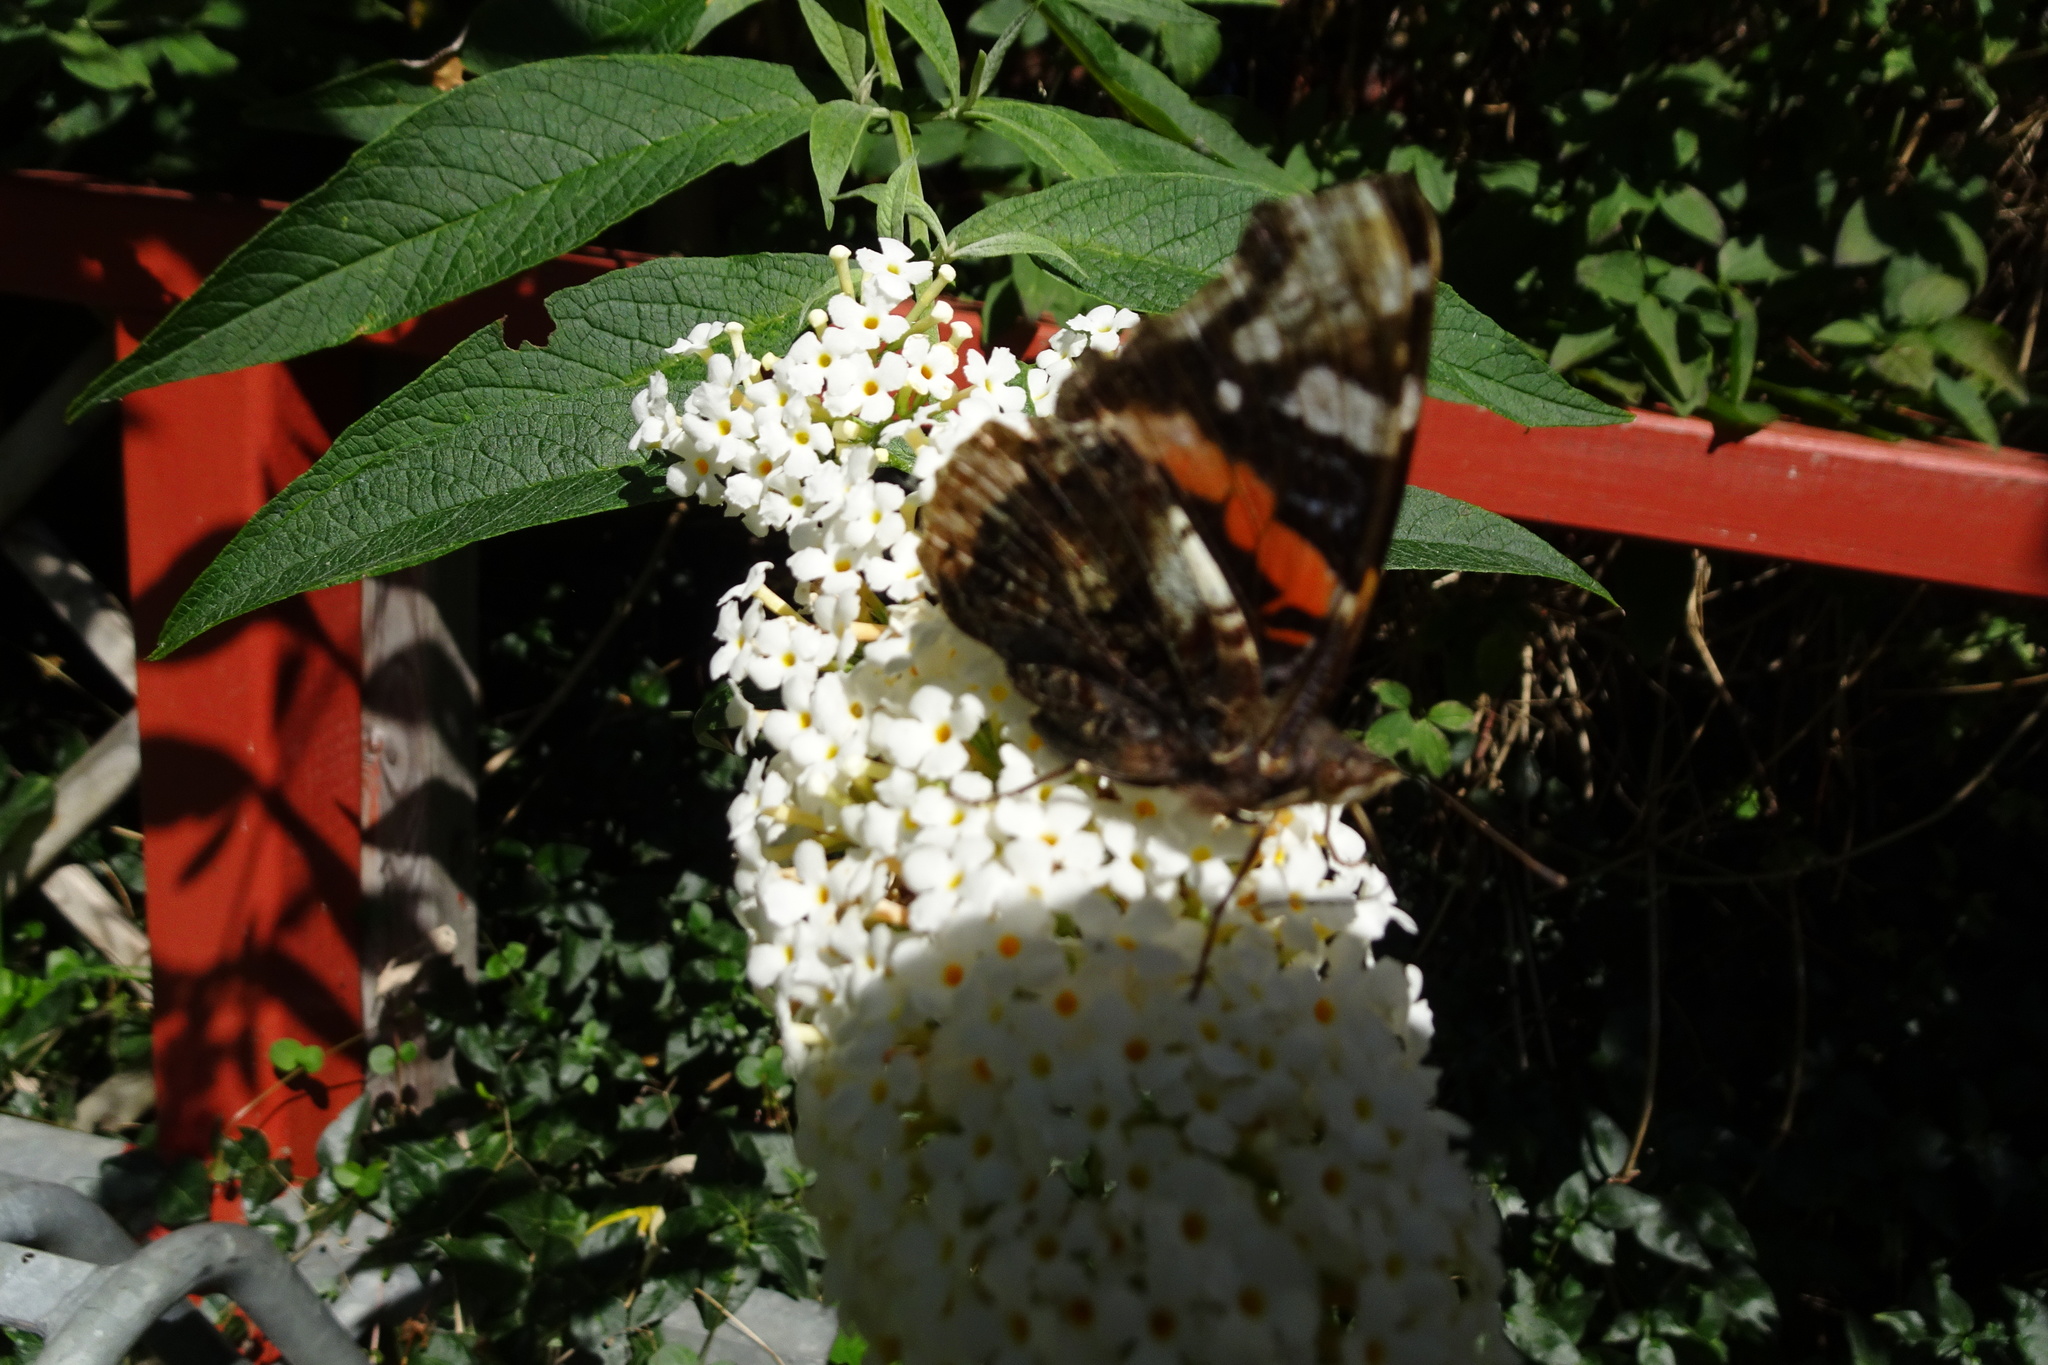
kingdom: Animalia
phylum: Arthropoda
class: Insecta
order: Lepidoptera
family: Nymphalidae
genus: Vanessa
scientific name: Vanessa atalanta
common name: Red admiral
